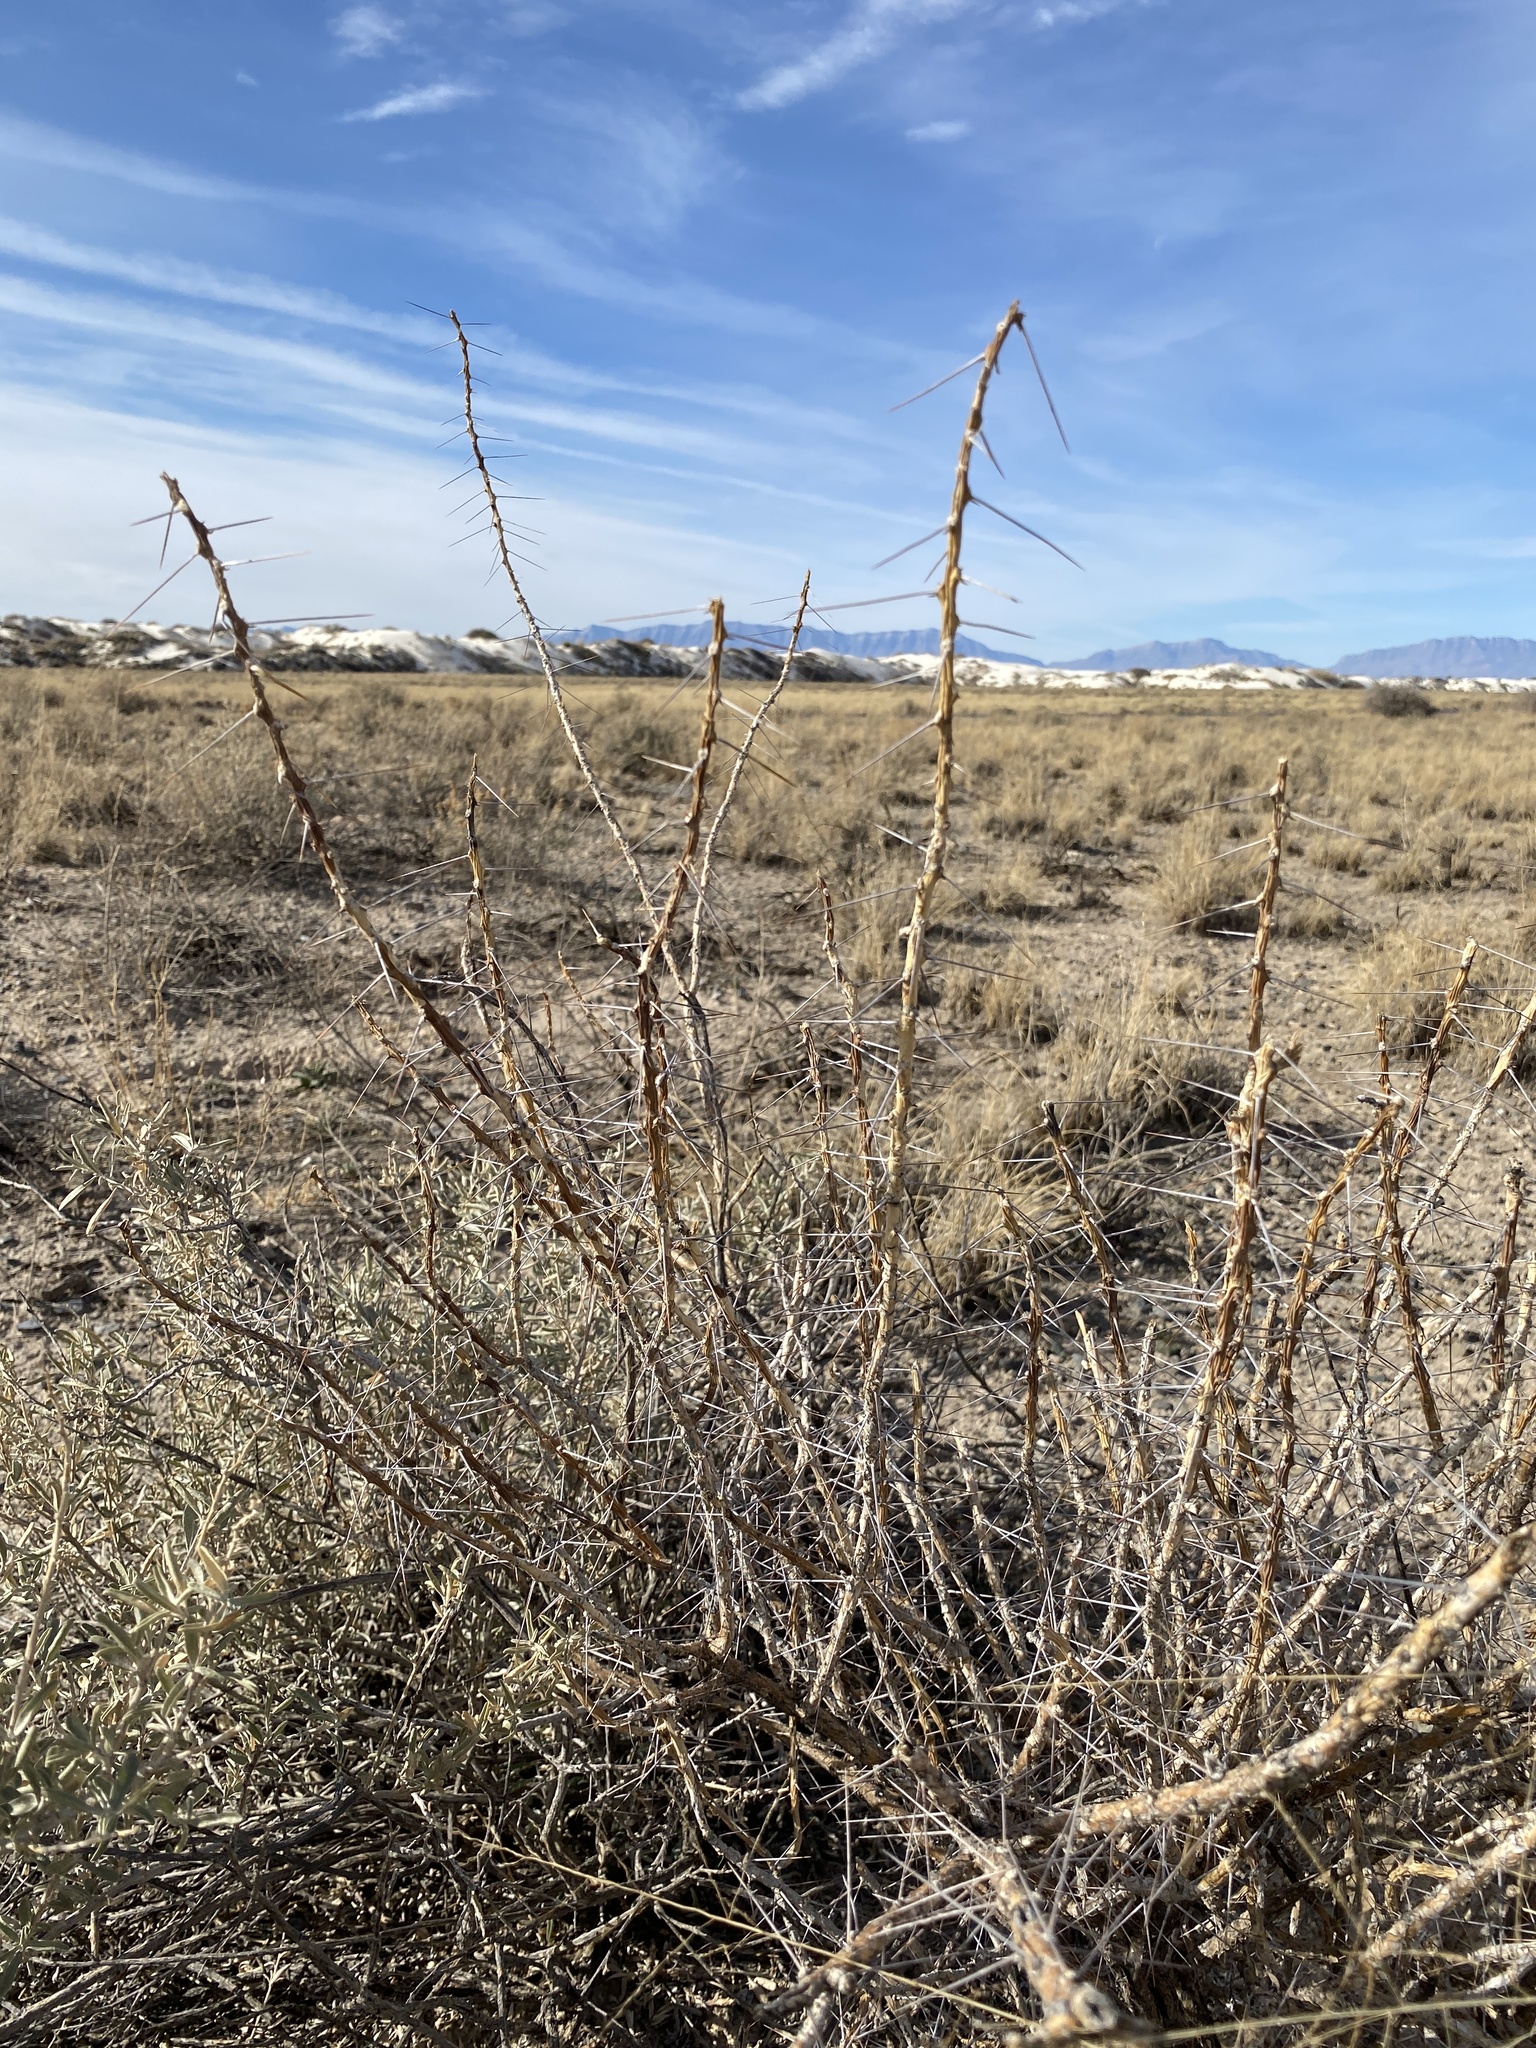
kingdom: Plantae
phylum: Tracheophyta
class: Magnoliopsida
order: Caryophyllales
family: Cactaceae
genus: Cylindropuntia
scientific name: Cylindropuntia leptocaulis
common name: Christmas cactus
